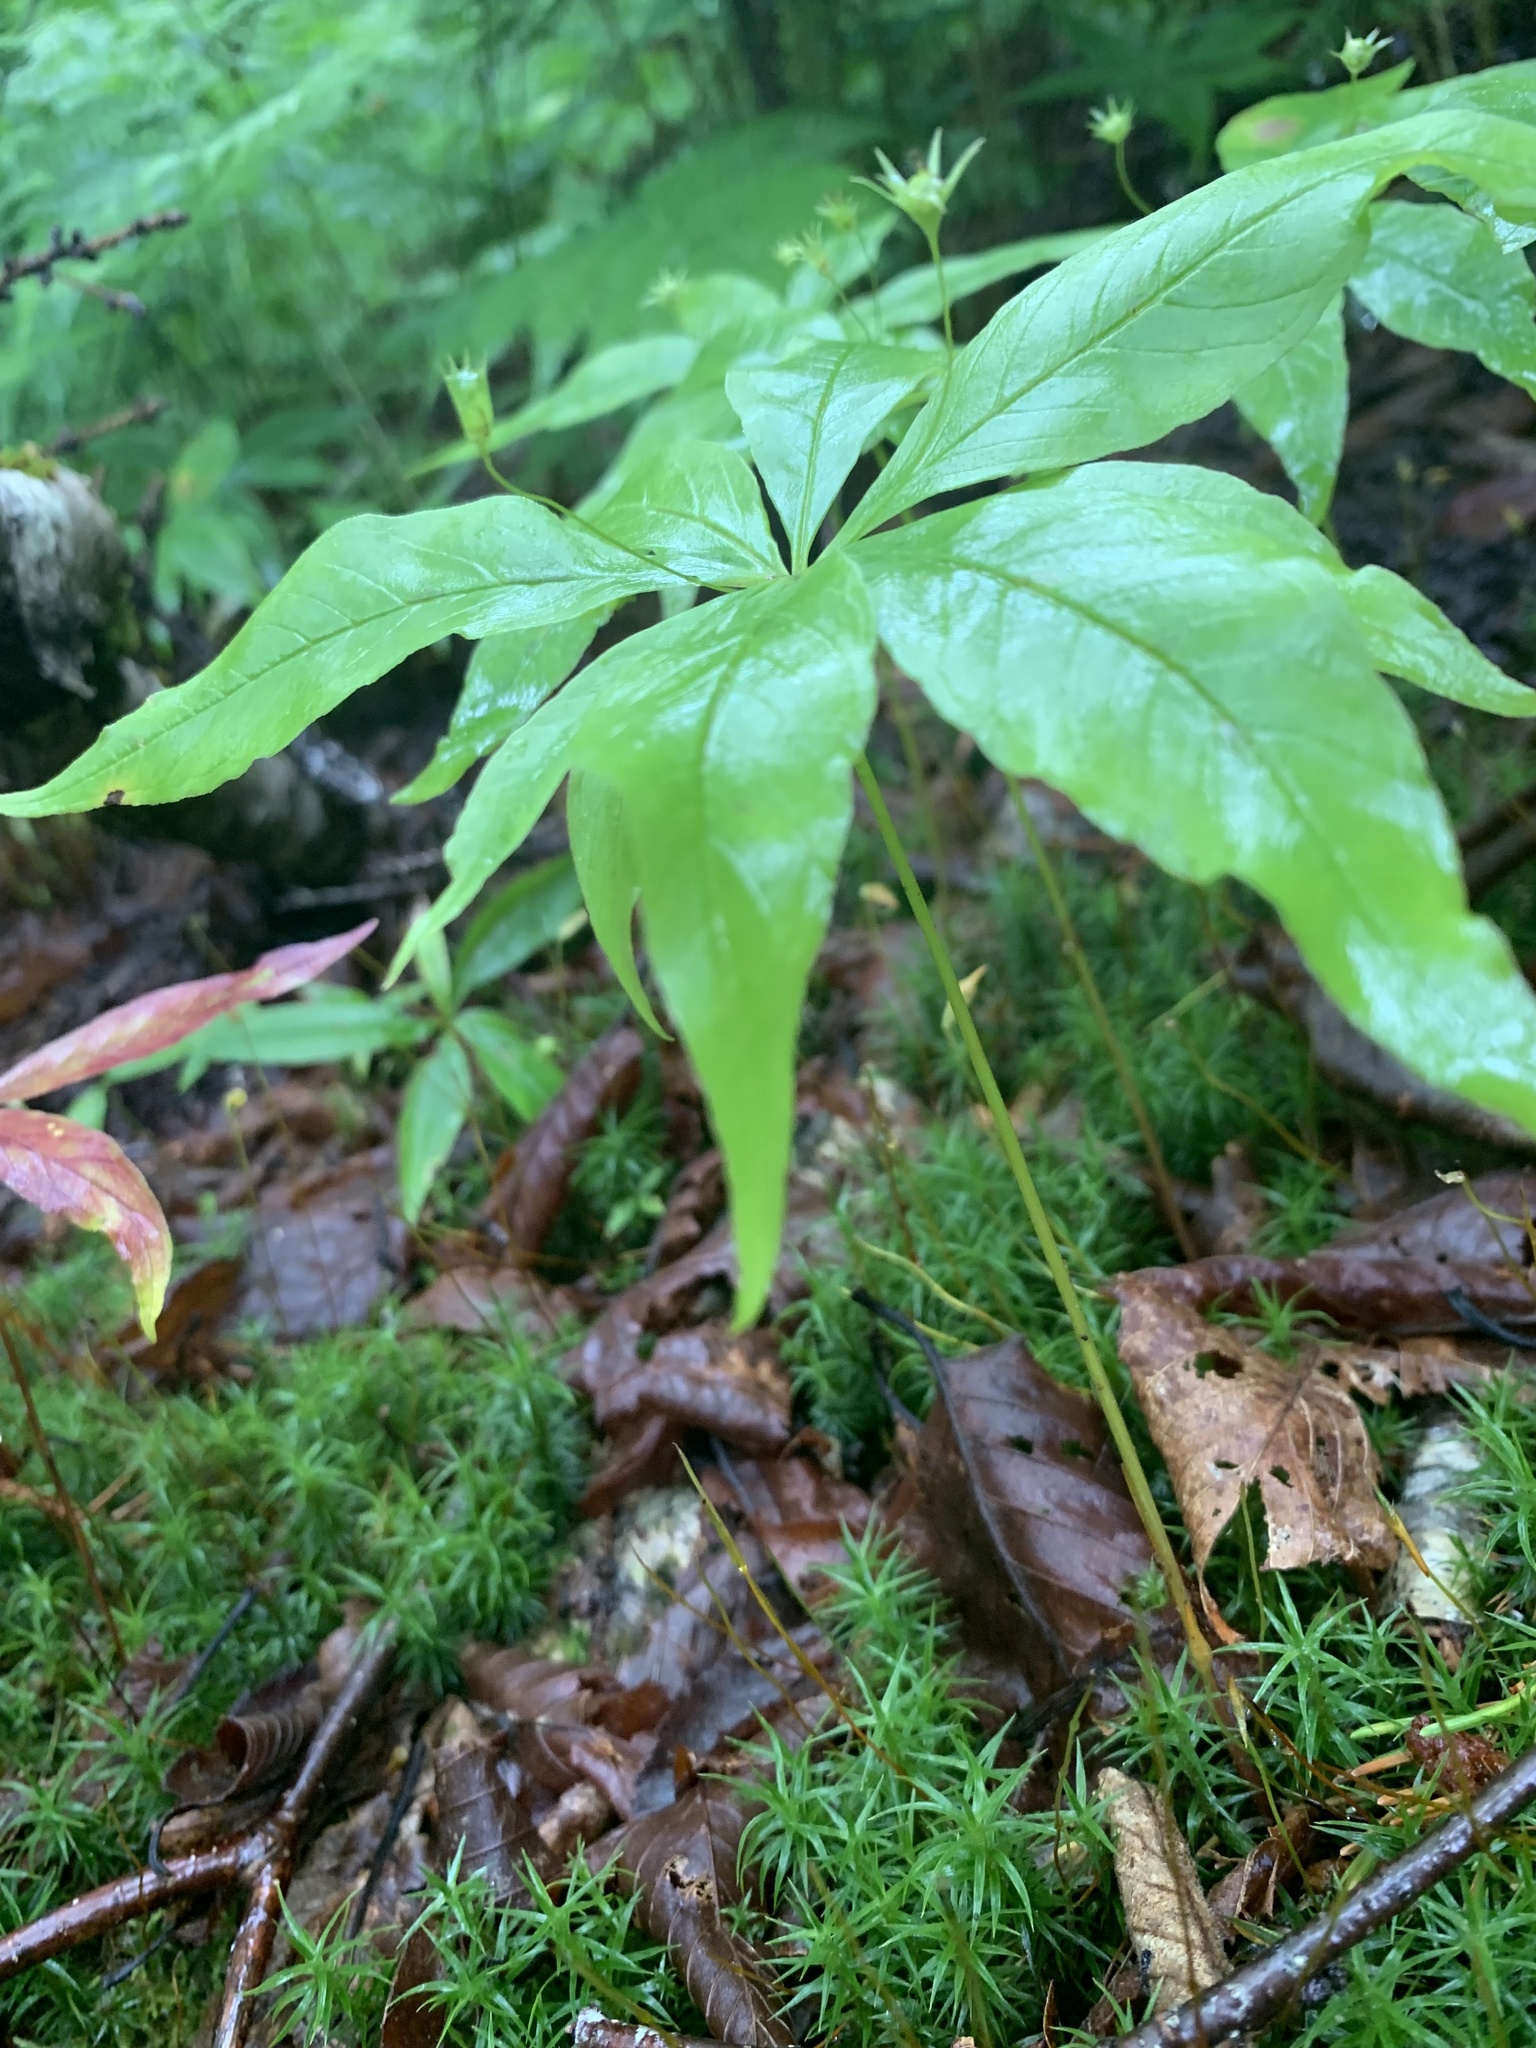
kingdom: Plantae
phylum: Tracheophyta
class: Magnoliopsida
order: Ericales
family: Primulaceae
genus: Lysimachia
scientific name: Lysimachia borealis
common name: American starflower
